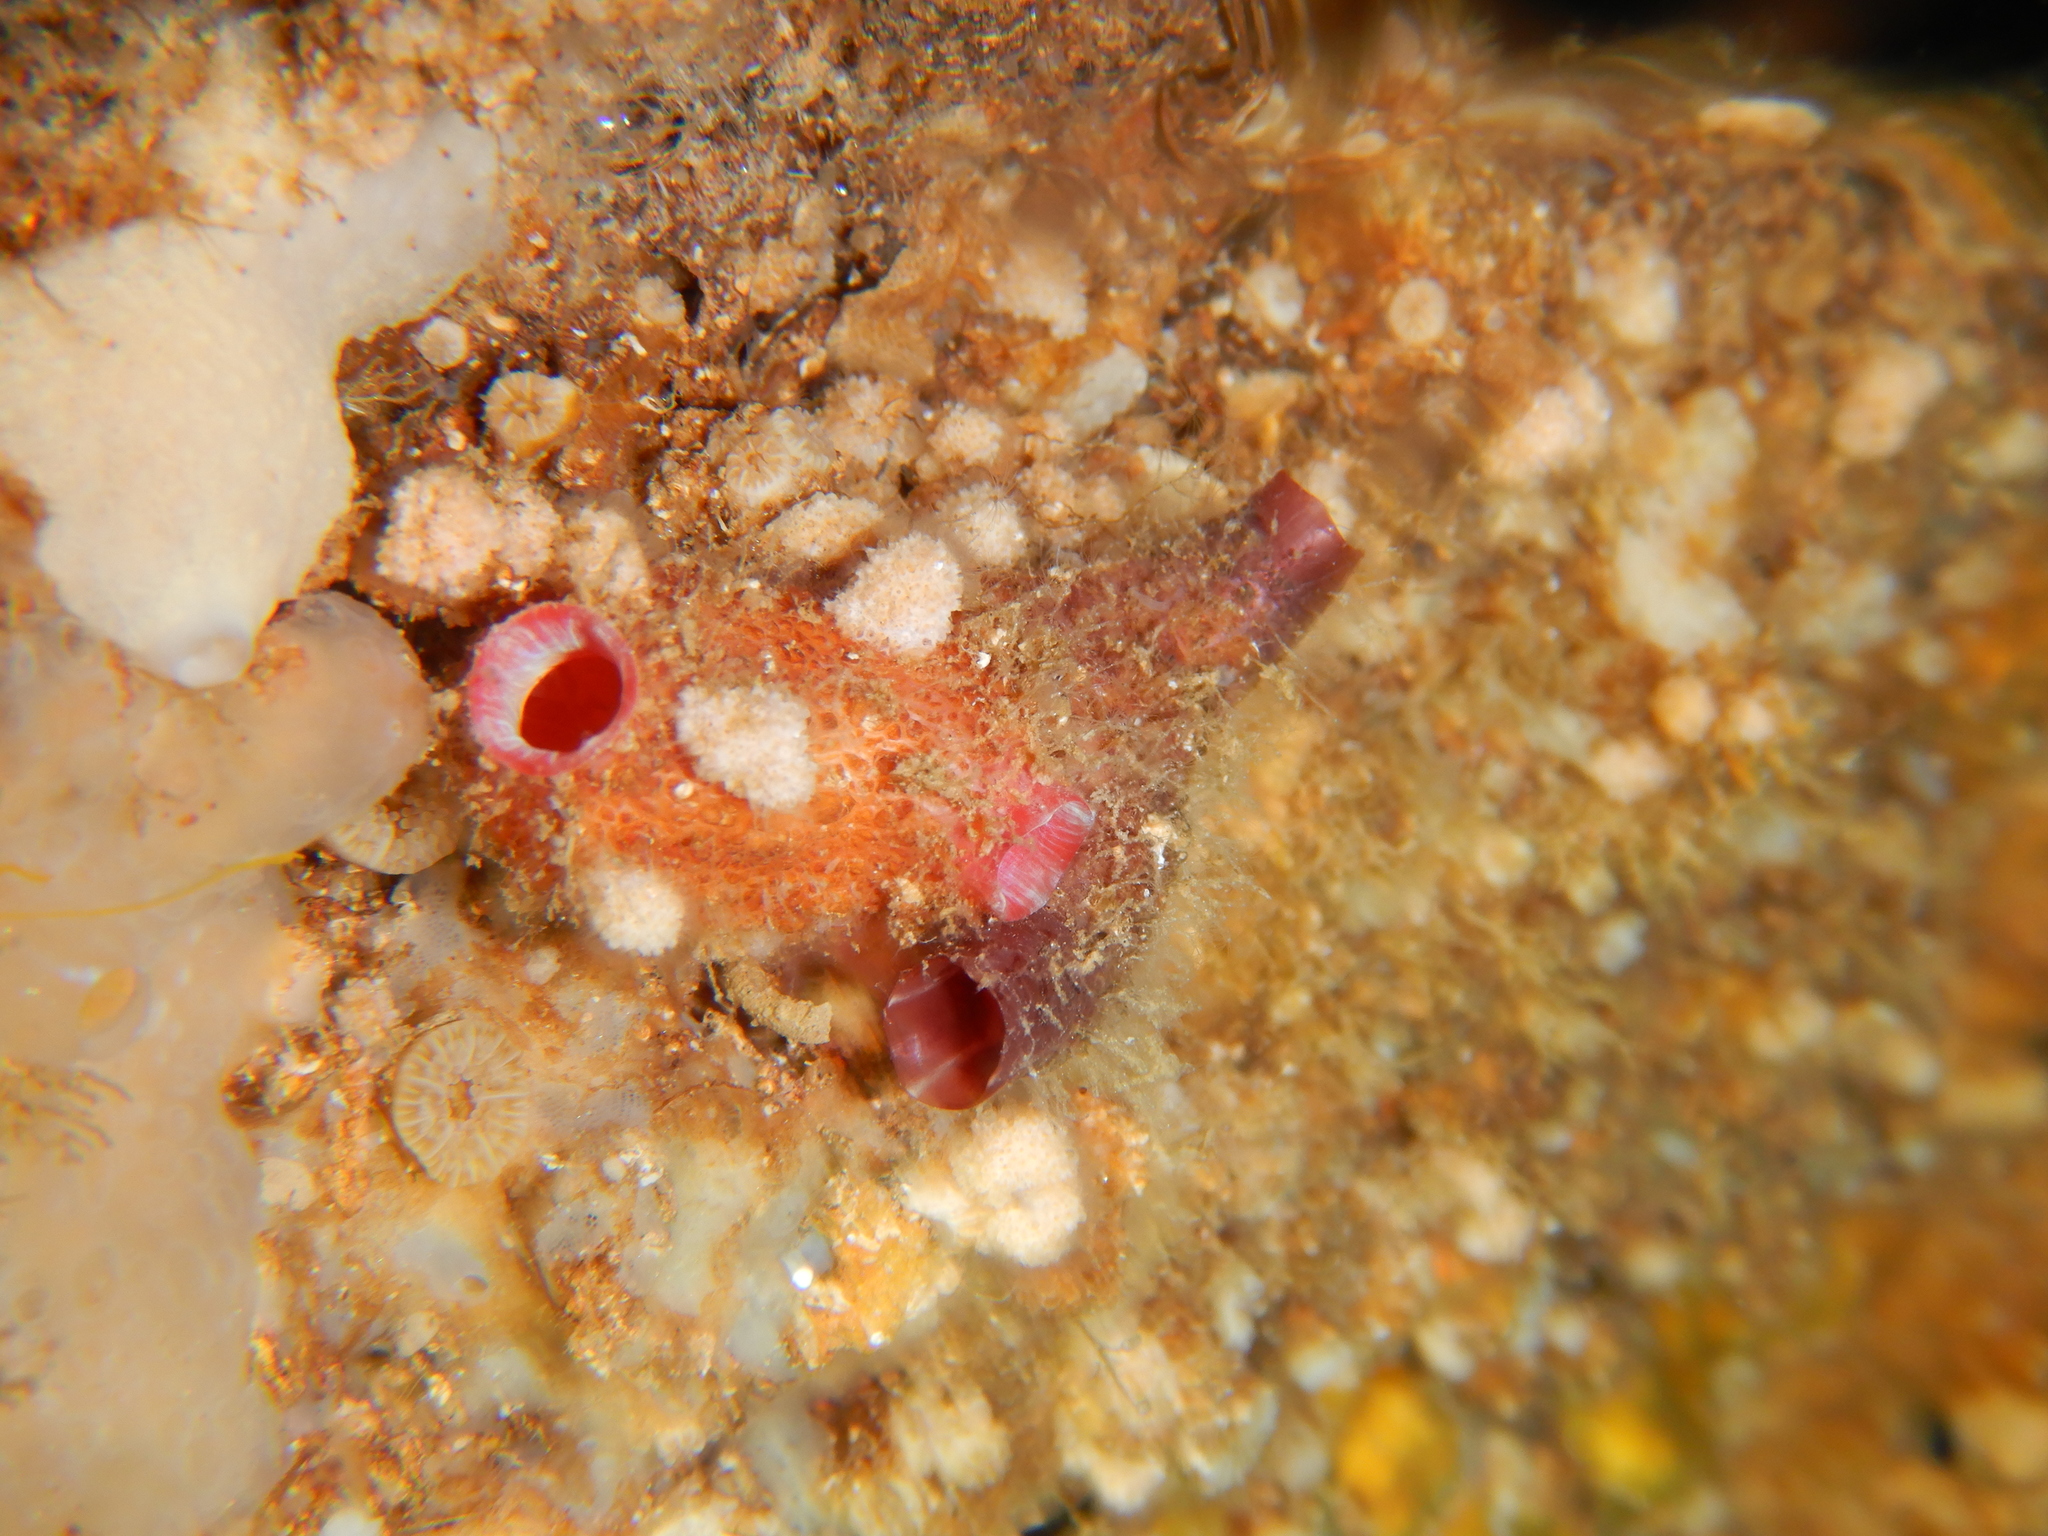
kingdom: Animalia
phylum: Chordata
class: Ascidiacea
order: Stolidobranchia
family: Pyuridae
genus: Pyura
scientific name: Pyura dura
